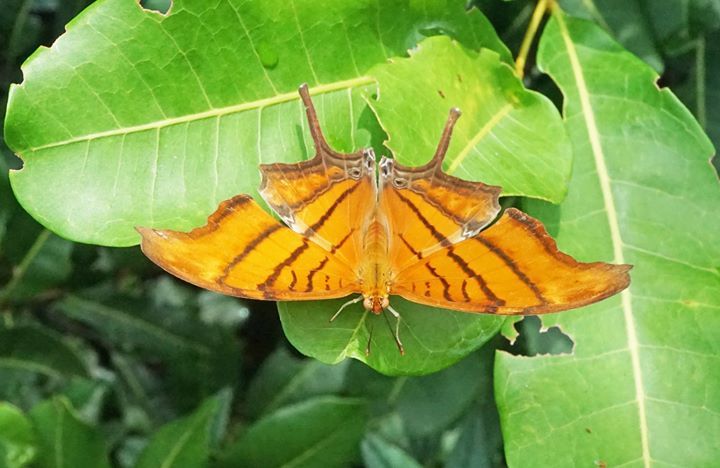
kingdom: Animalia
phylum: Arthropoda
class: Insecta
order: Lepidoptera
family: Nymphalidae
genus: Marpesia
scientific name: Marpesia petreus
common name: Red dagger wing
